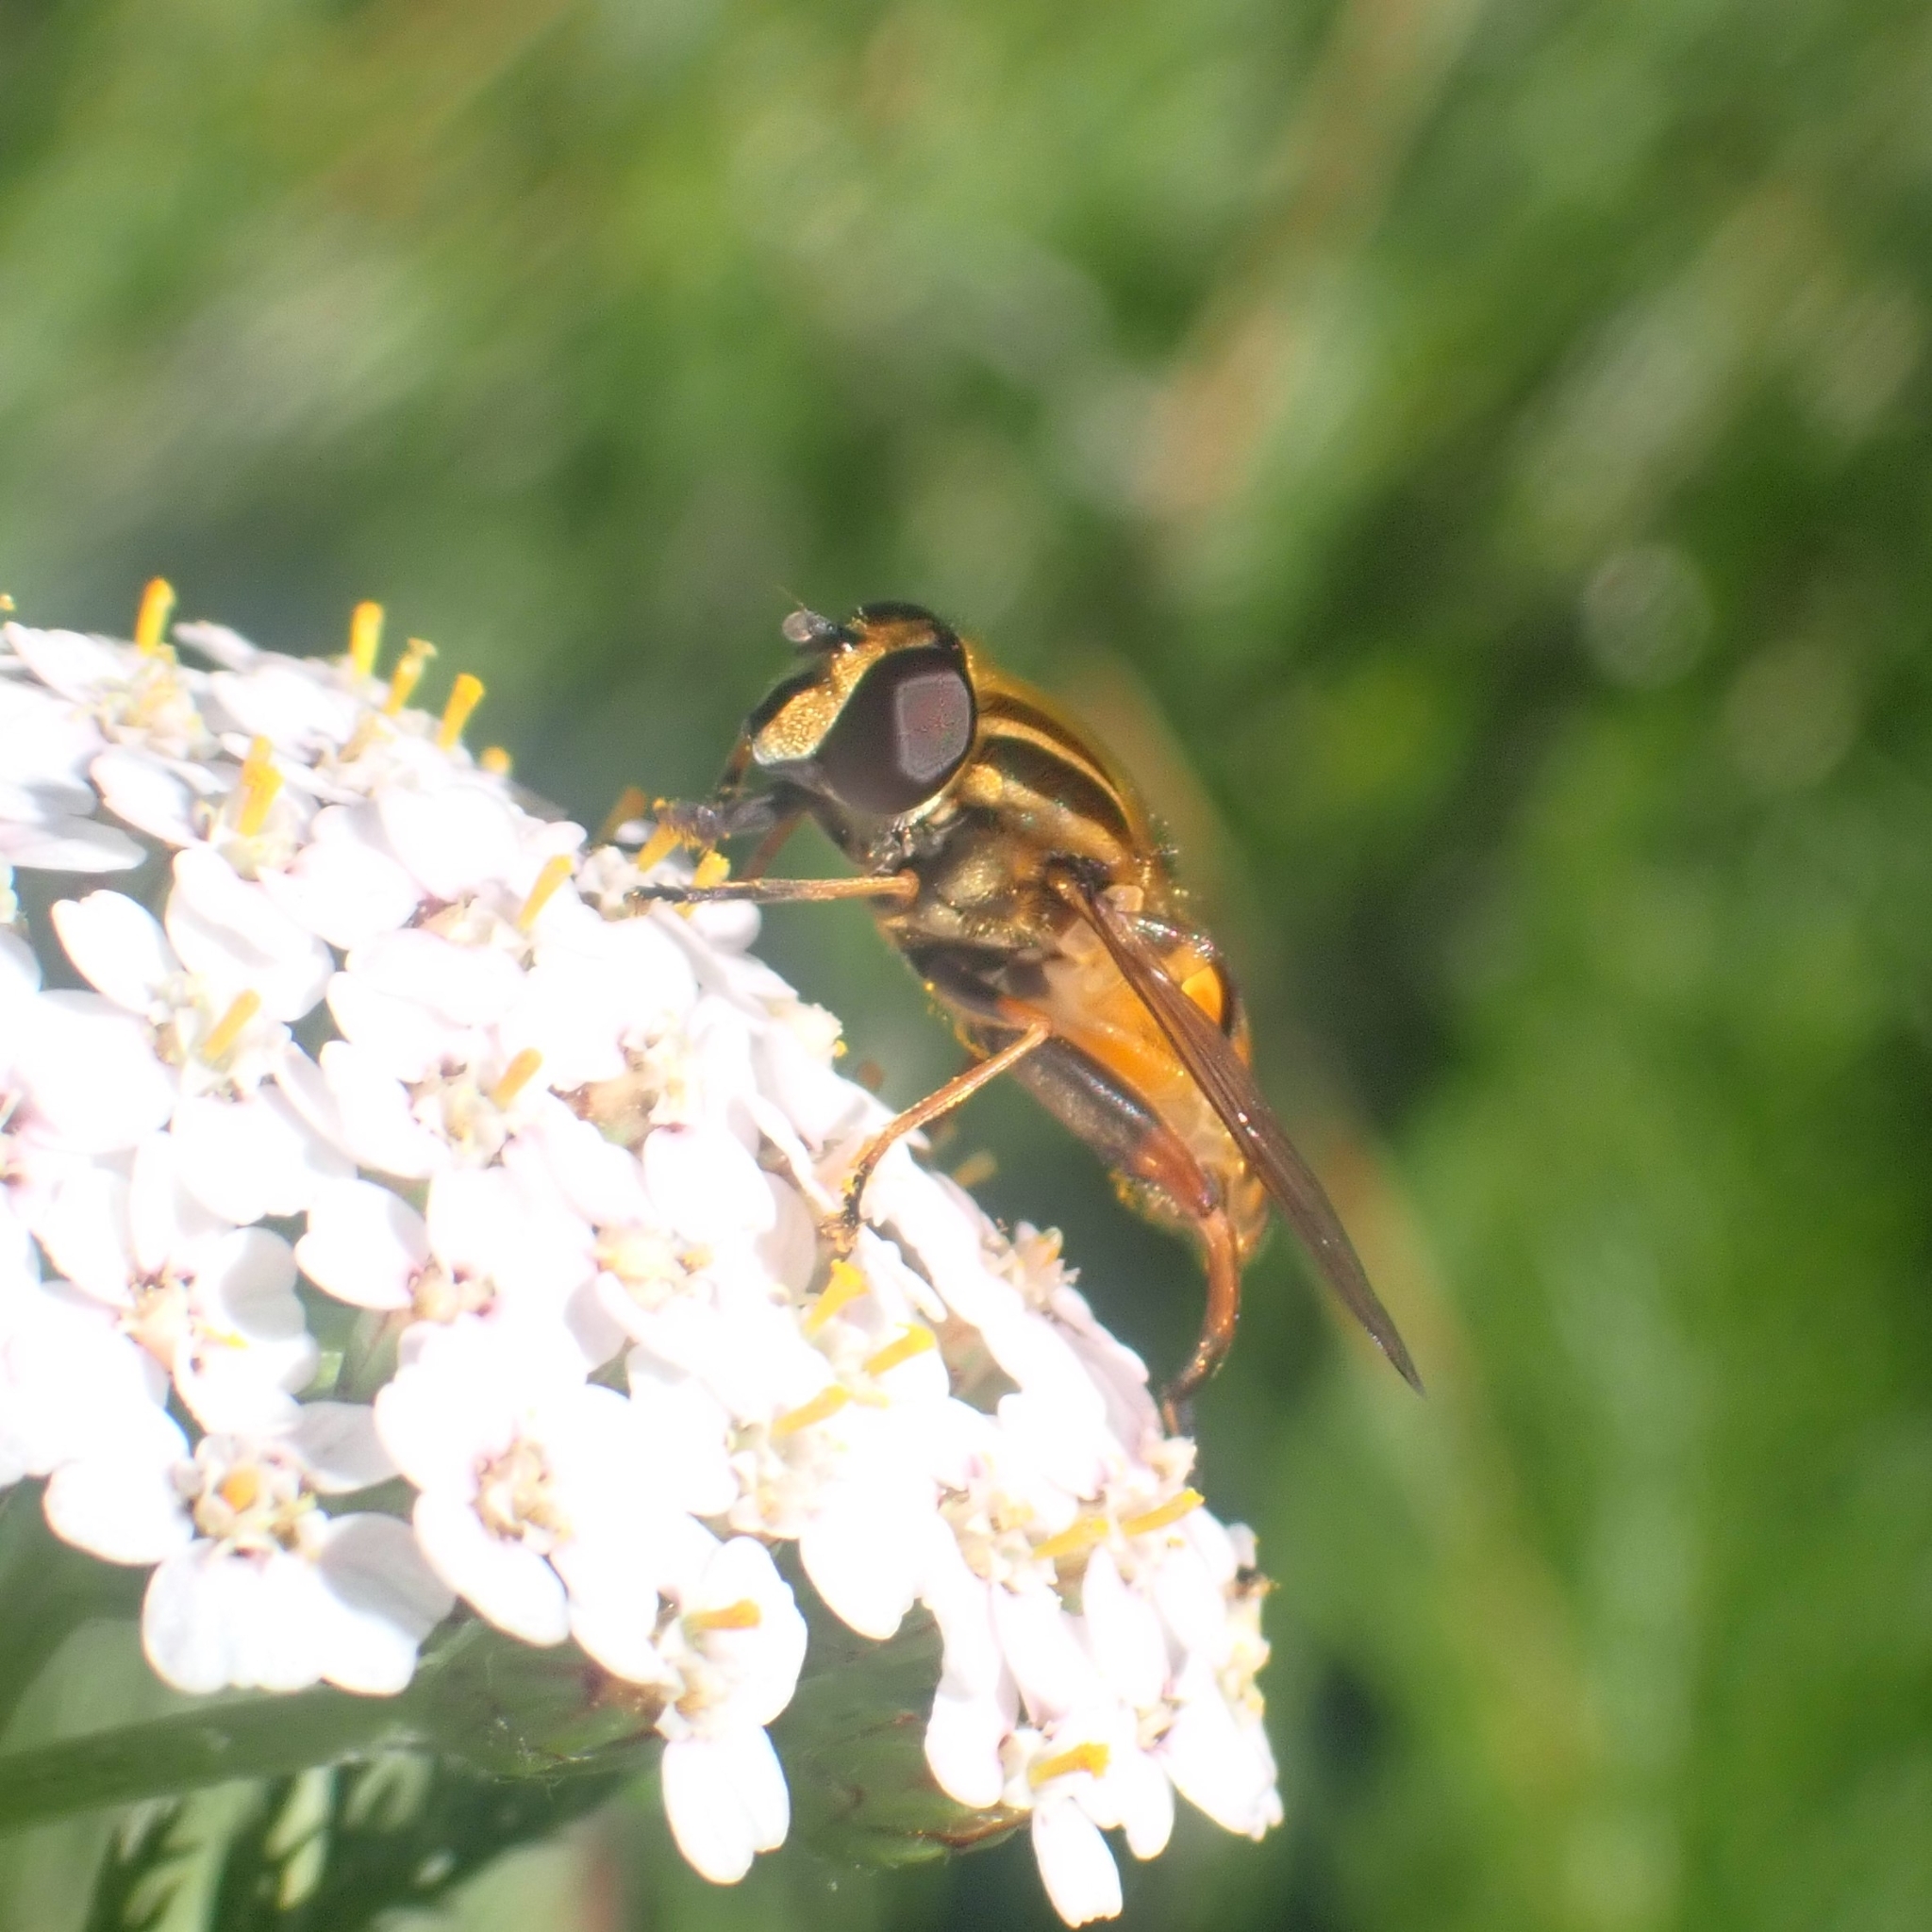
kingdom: Animalia
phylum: Arthropoda
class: Insecta
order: Diptera
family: Syrphidae
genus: Helophilus
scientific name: Helophilus pendulus
